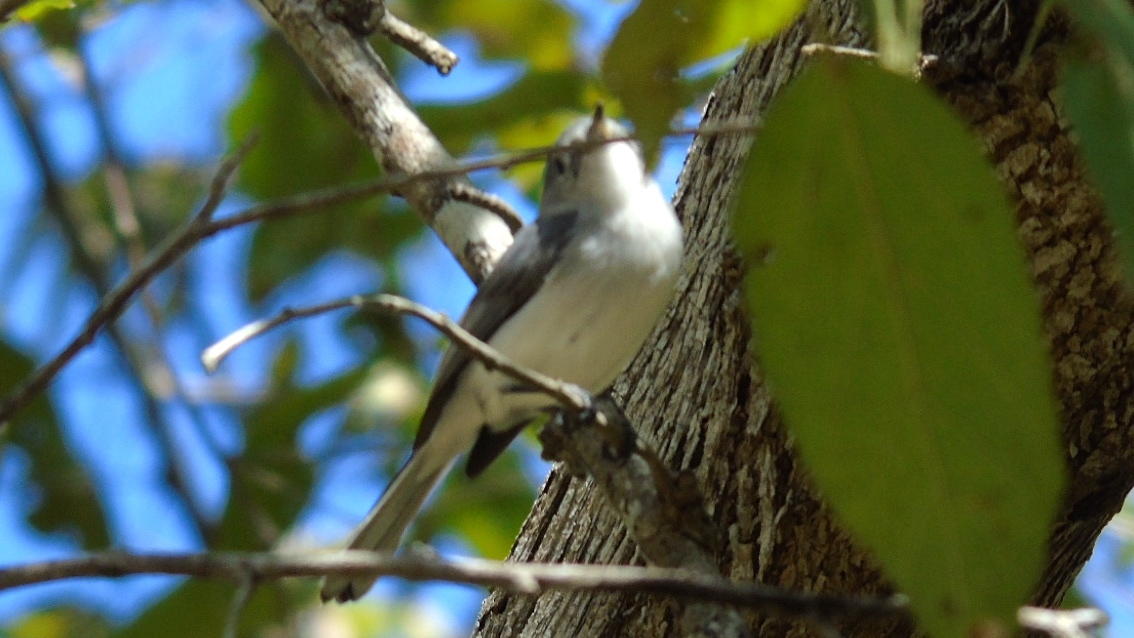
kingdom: Animalia
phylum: Chordata
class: Aves
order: Passeriformes
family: Polioptilidae
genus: Polioptila
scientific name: Polioptila caerulea
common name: Blue-gray gnatcatcher
